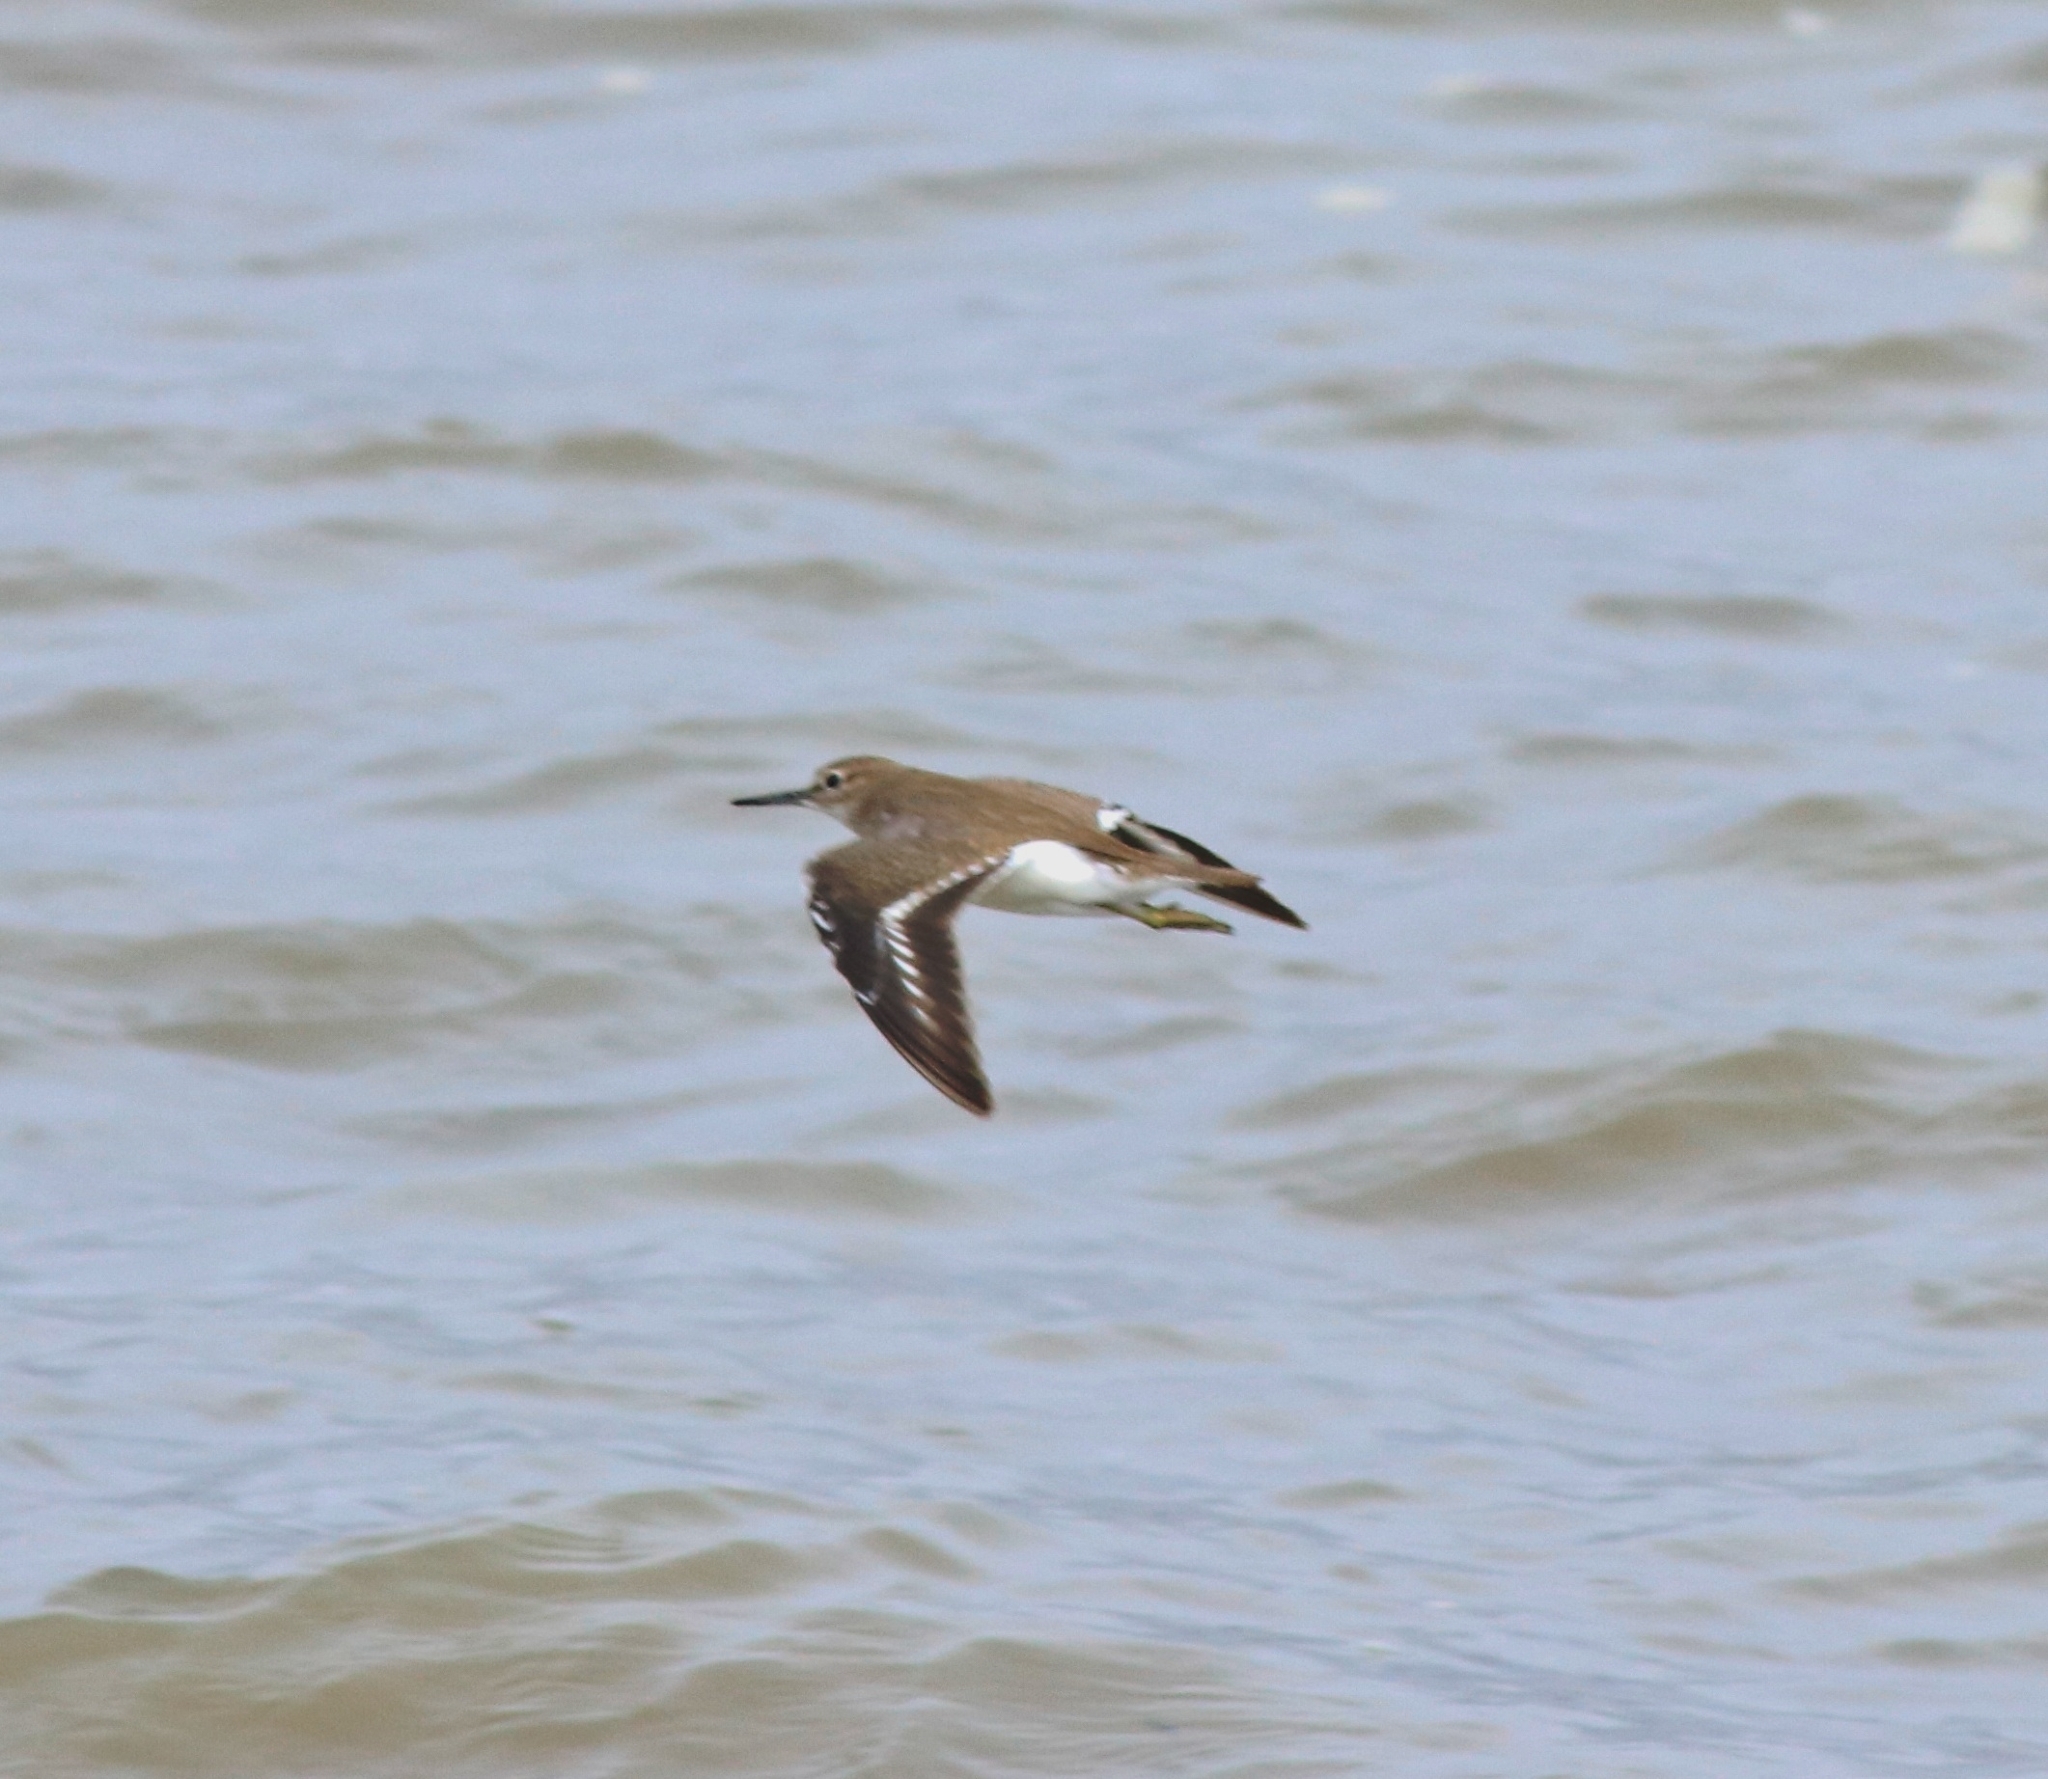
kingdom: Animalia
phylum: Chordata
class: Aves
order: Charadriiformes
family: Scolopacidae
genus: Actitis
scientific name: Actitis hypoleucos
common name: Common sandpiper
